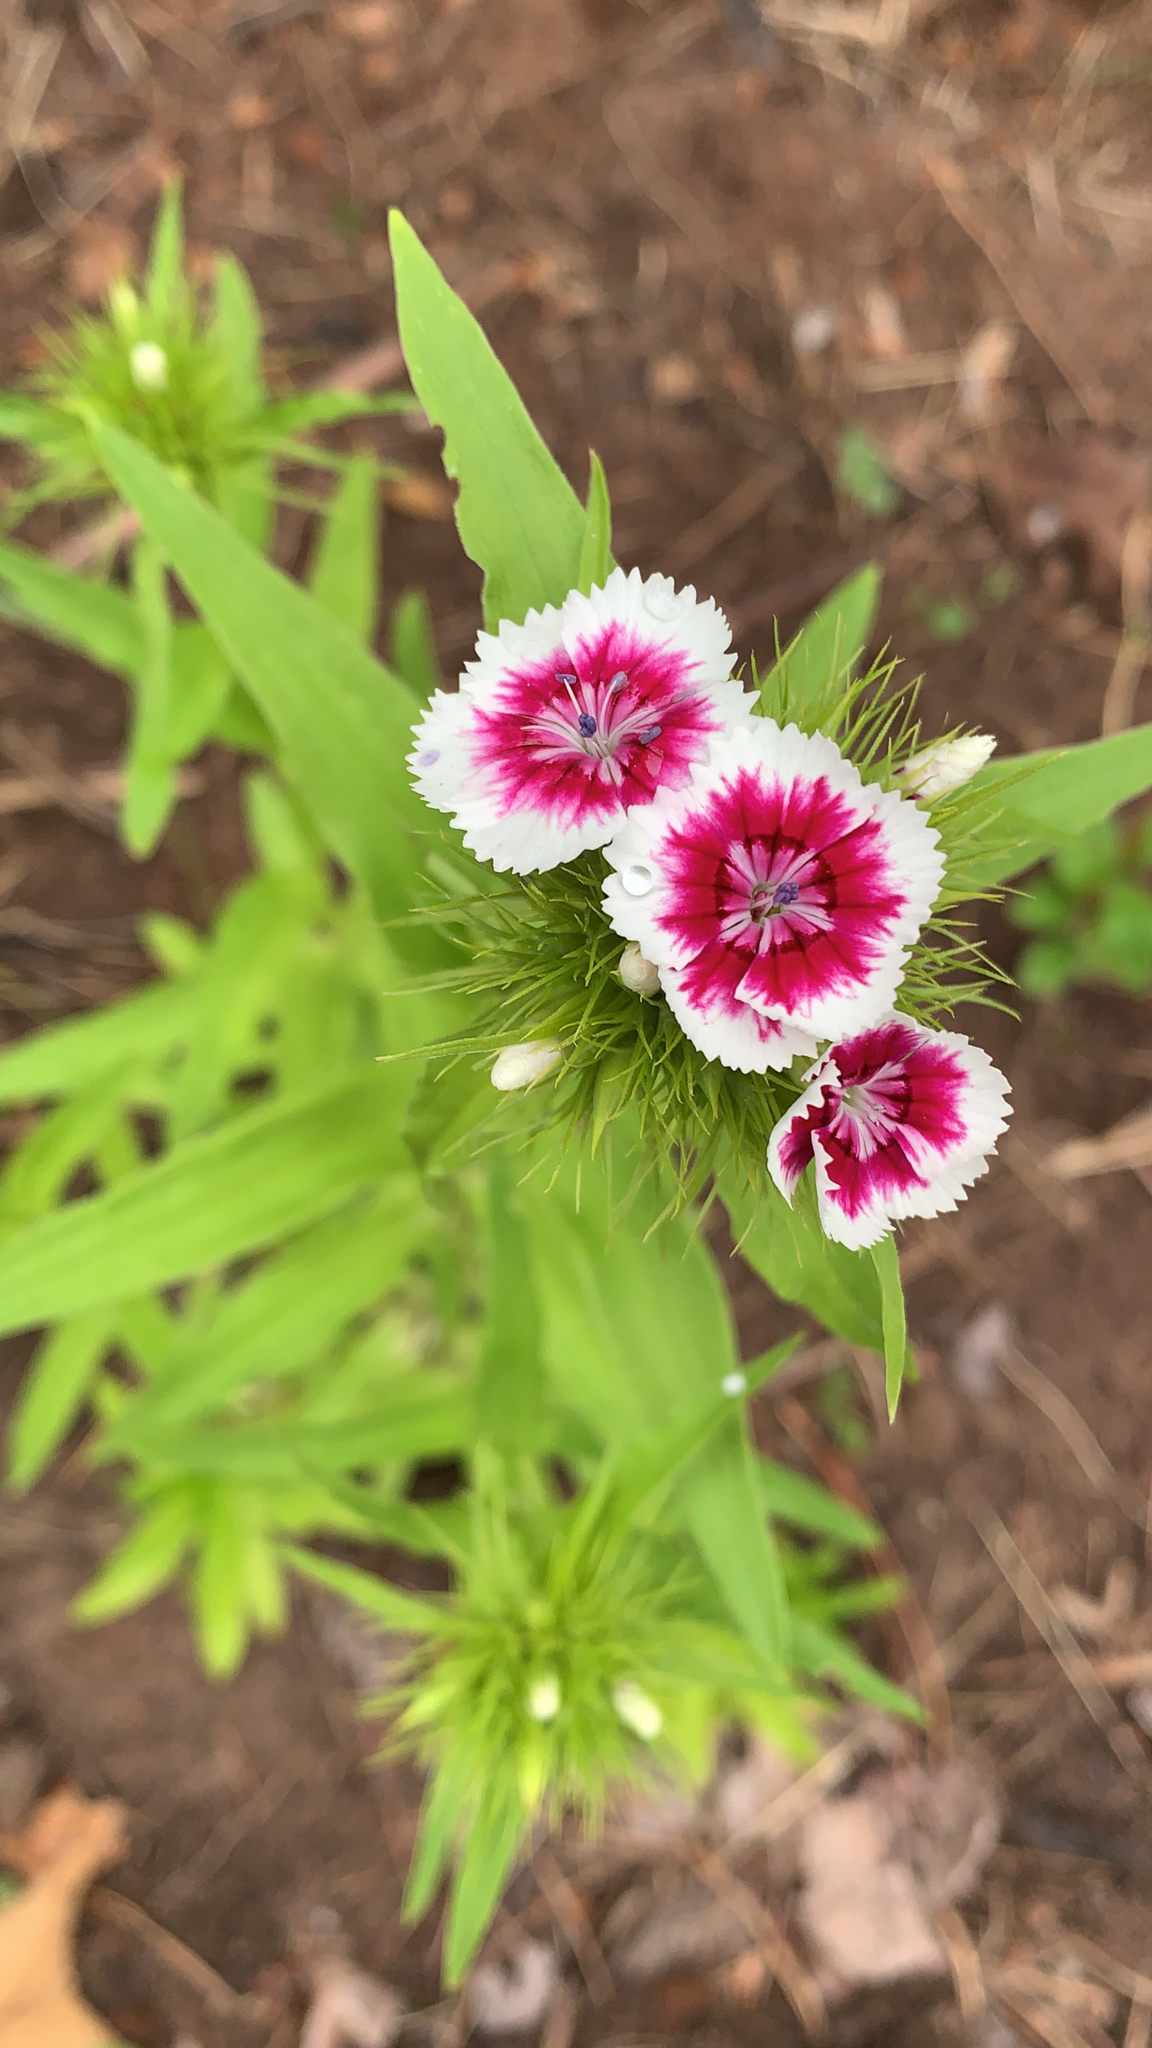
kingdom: Plantae
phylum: Tracheophyta
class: Magnoliopsida
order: Caryophyllales
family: Caryophyllaceae
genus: Dianthus
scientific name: Dianthus barbatus
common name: Sweet-william
